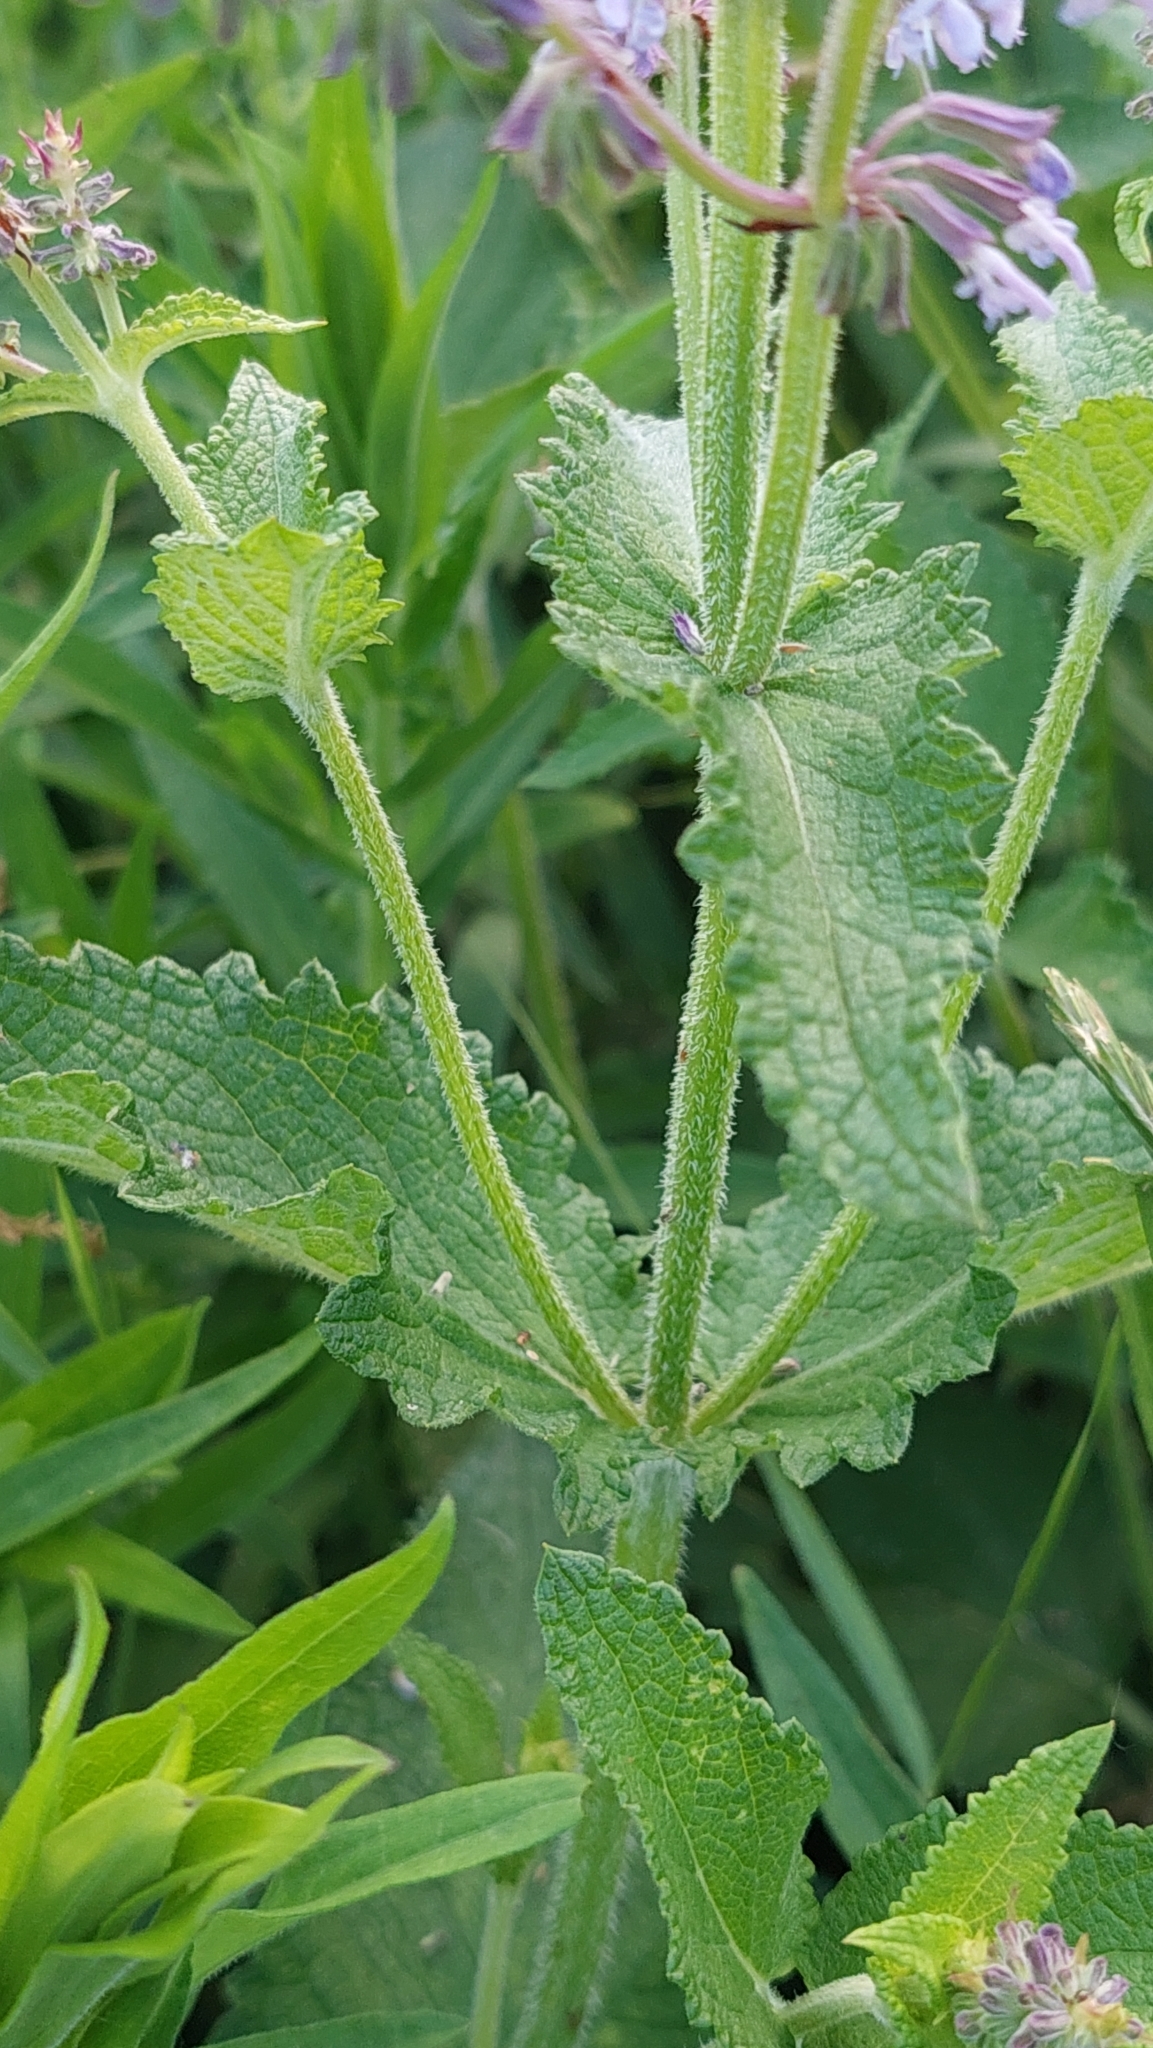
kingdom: Plantae
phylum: Tracheophyta
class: Magnoliopsida
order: Lamiales
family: Lamiaceae
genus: Salvia
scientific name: Salvia verticillata
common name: Whorled clary
